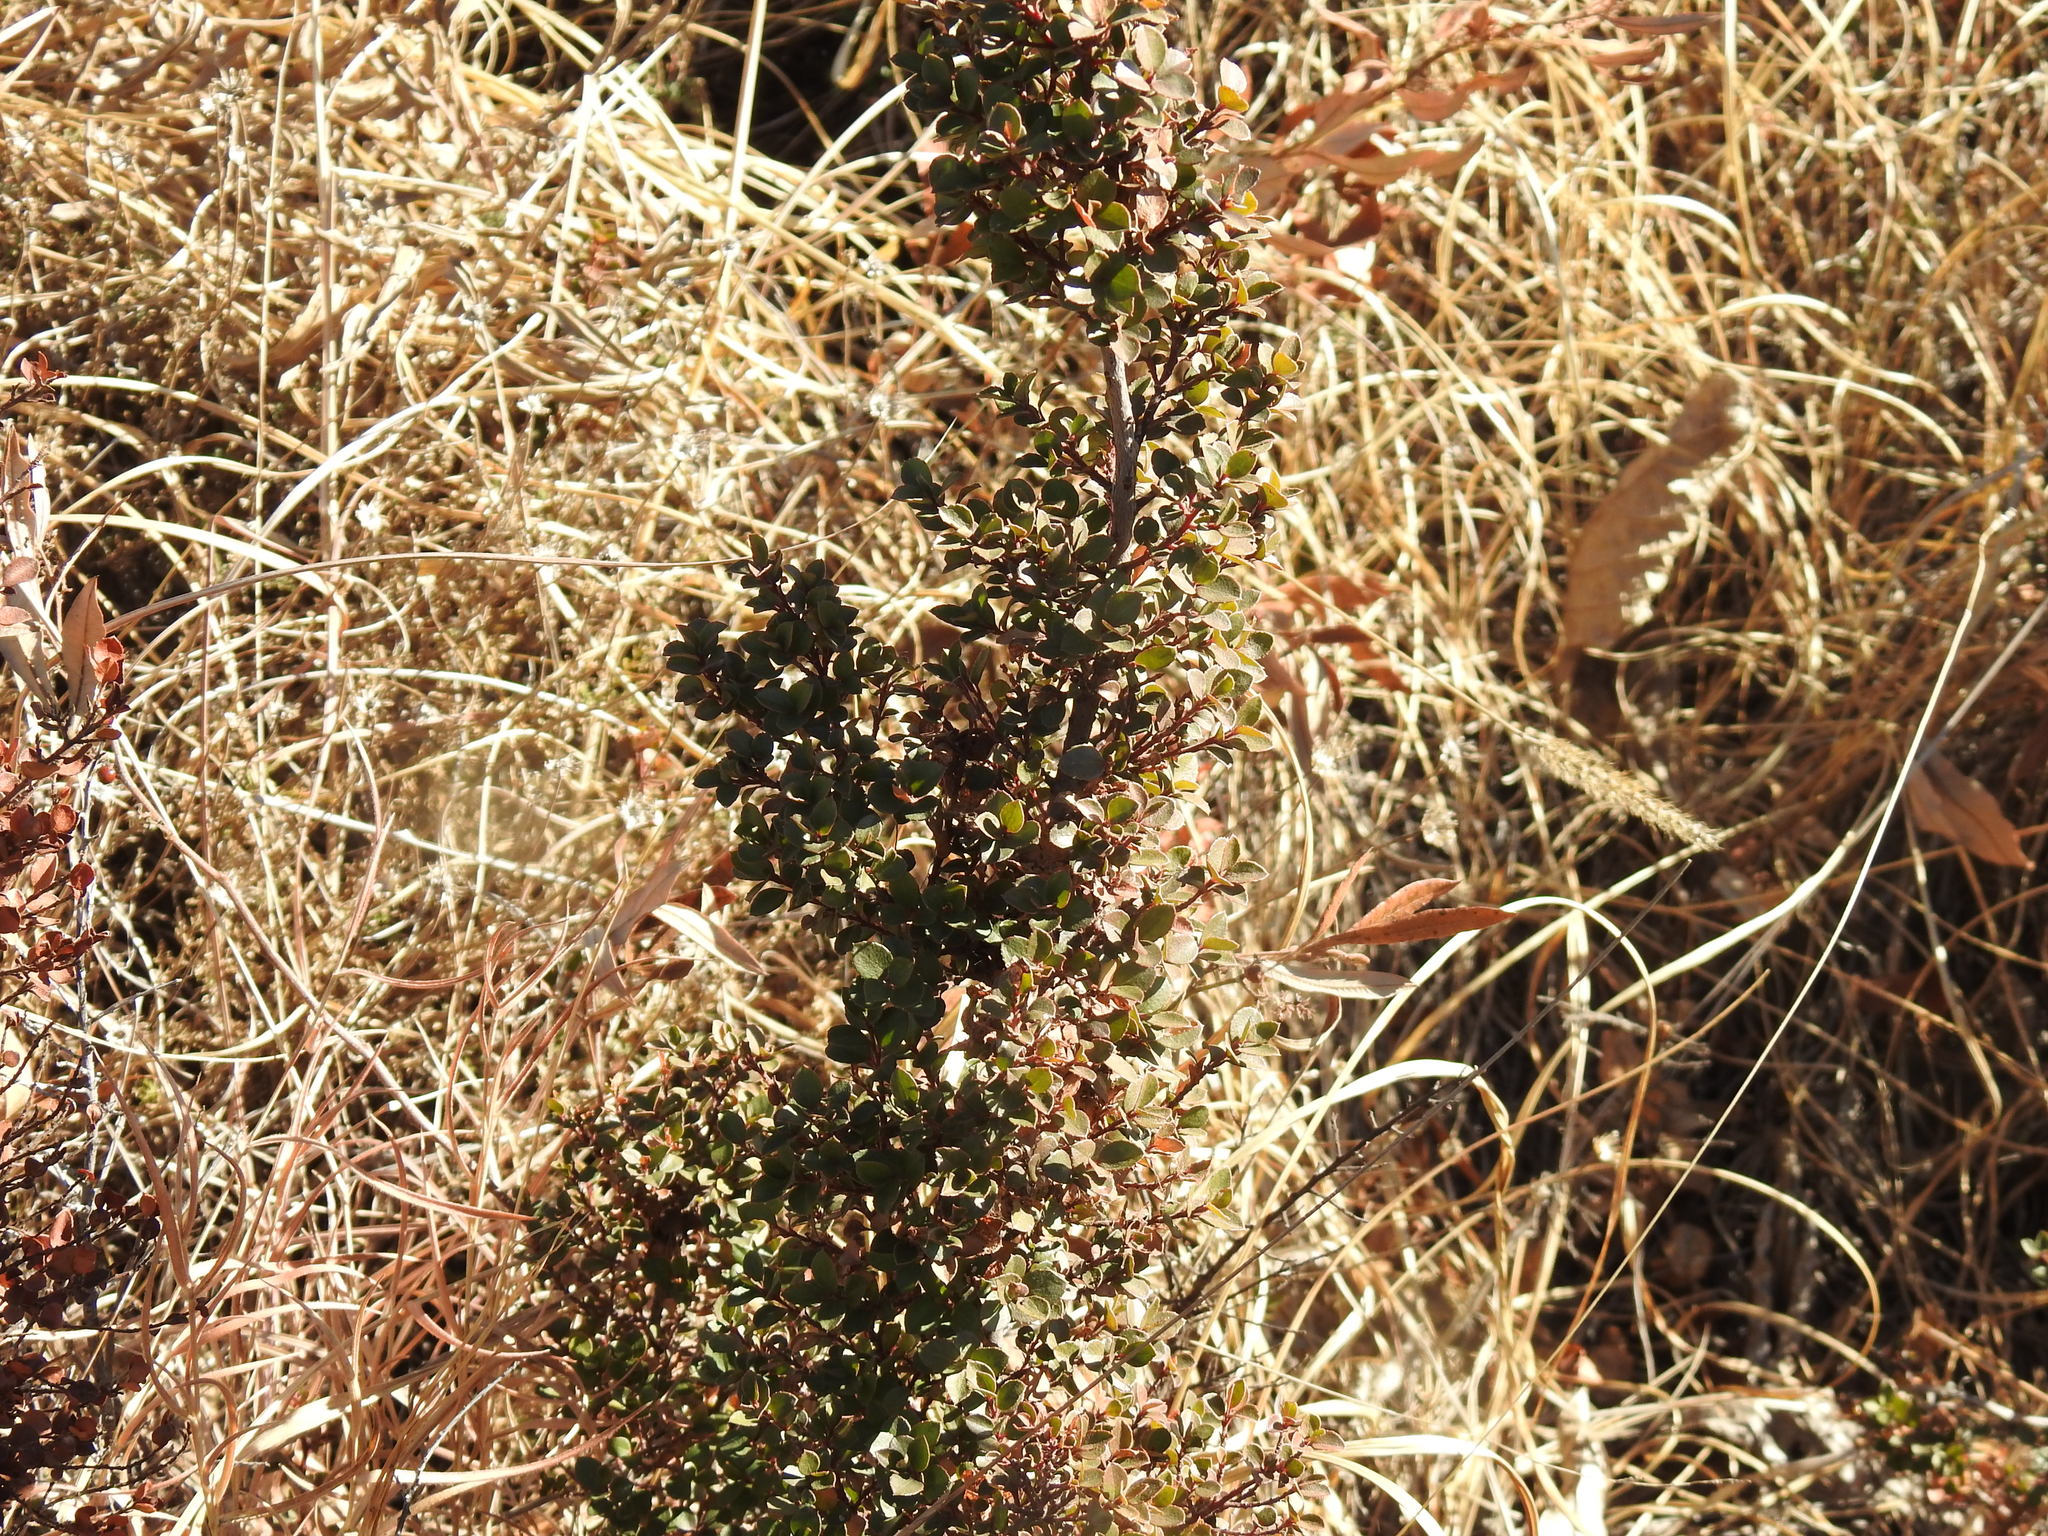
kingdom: Plantae
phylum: Tracheophyta
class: Magnoliopsida
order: Ericales
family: Primulaceae
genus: Myrsine
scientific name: Myrsine africana
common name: African-boxwood
